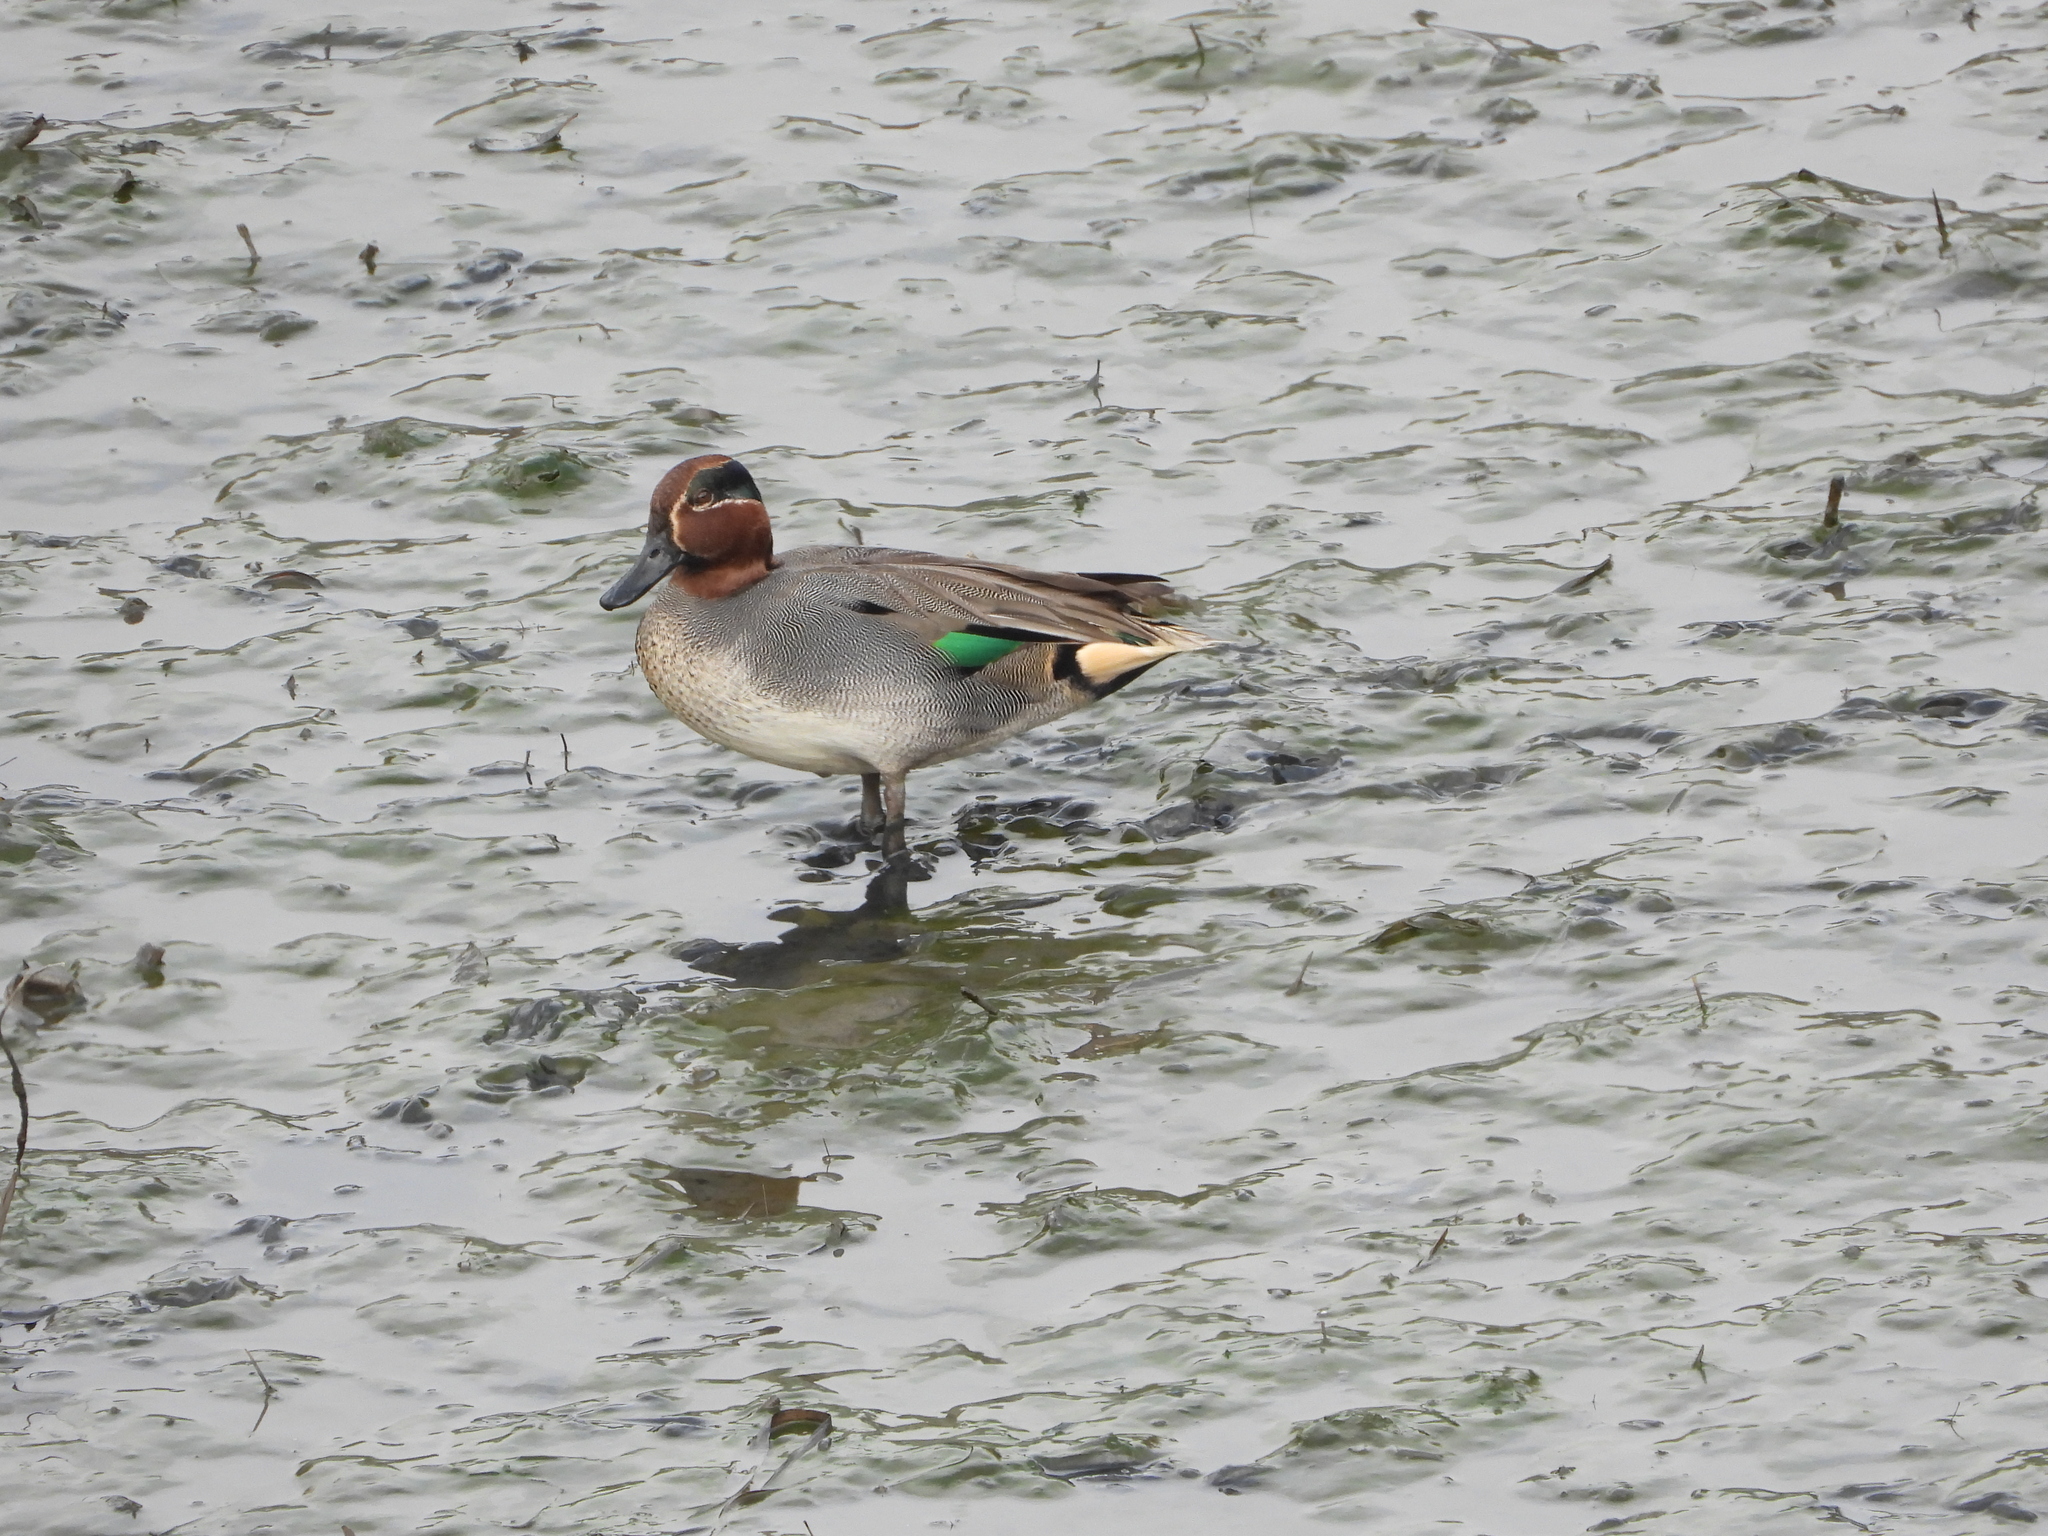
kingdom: Animalia
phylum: Chordata
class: Aves
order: Anseriformes
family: Anatidae
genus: Anas
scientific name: Anas crecca
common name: Eurasian teal
